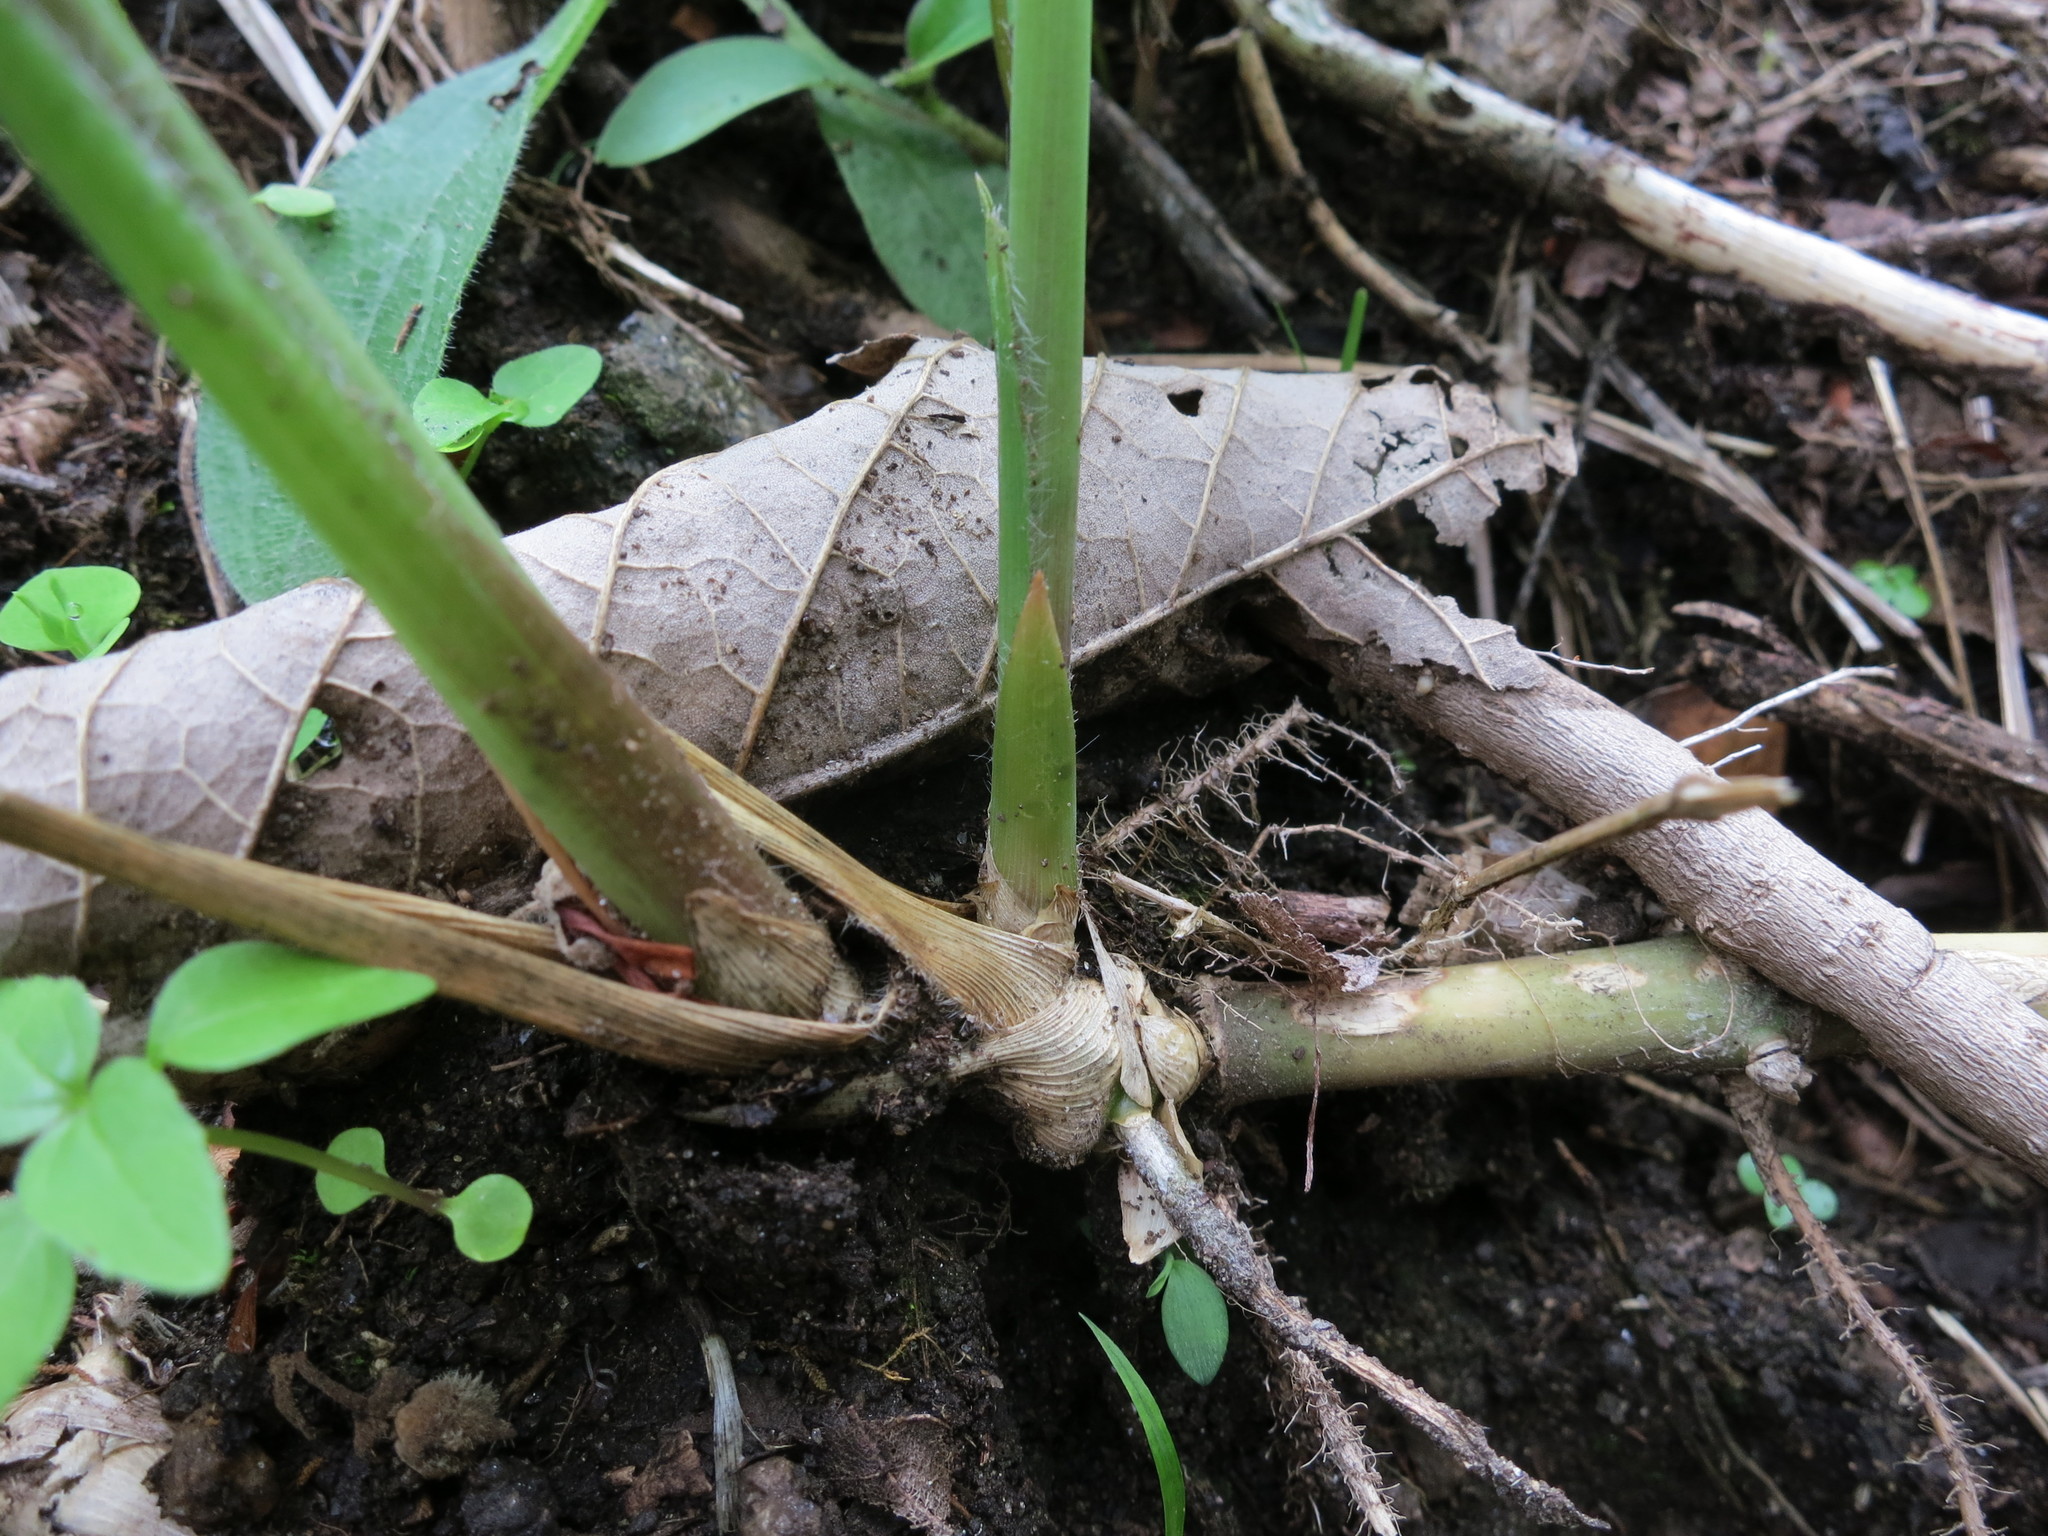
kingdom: Plantae
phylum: Tracheophyta
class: Liliopsida
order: Poales
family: Poaceae
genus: Lecomtella
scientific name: Lecomtella madagascariensis
